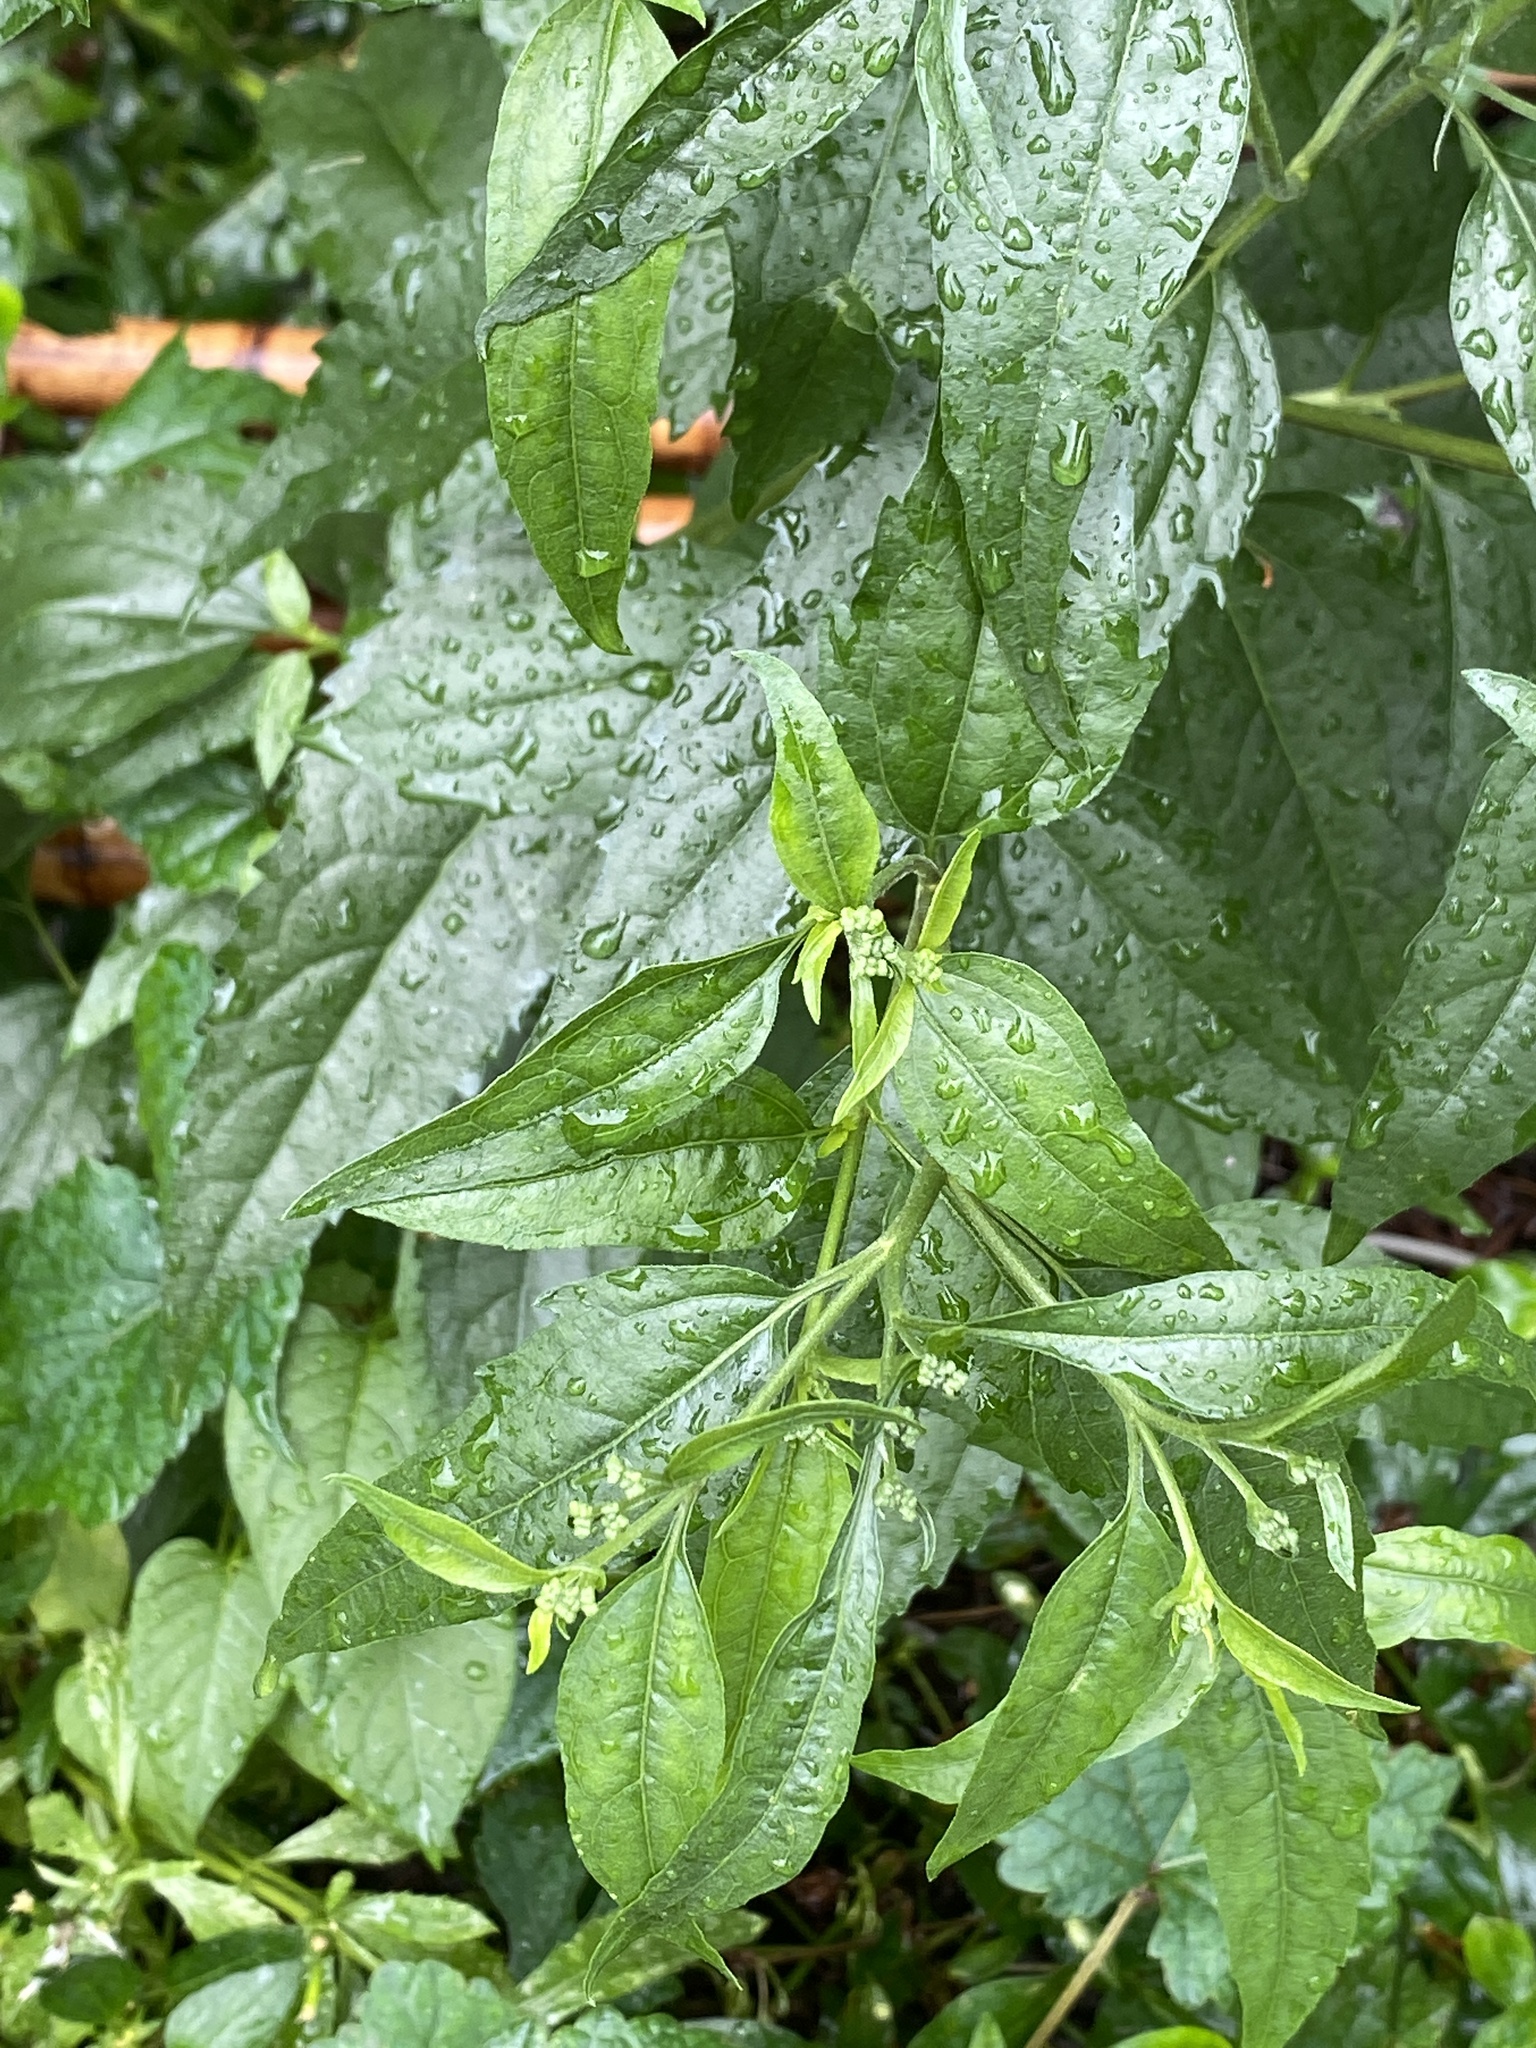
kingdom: Plantae
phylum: Tracheophyta
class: Magnoliopsida
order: Asterales
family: Asteraceae
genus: Eupatorium
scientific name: Eupatorium serotinum
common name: Late boneset
